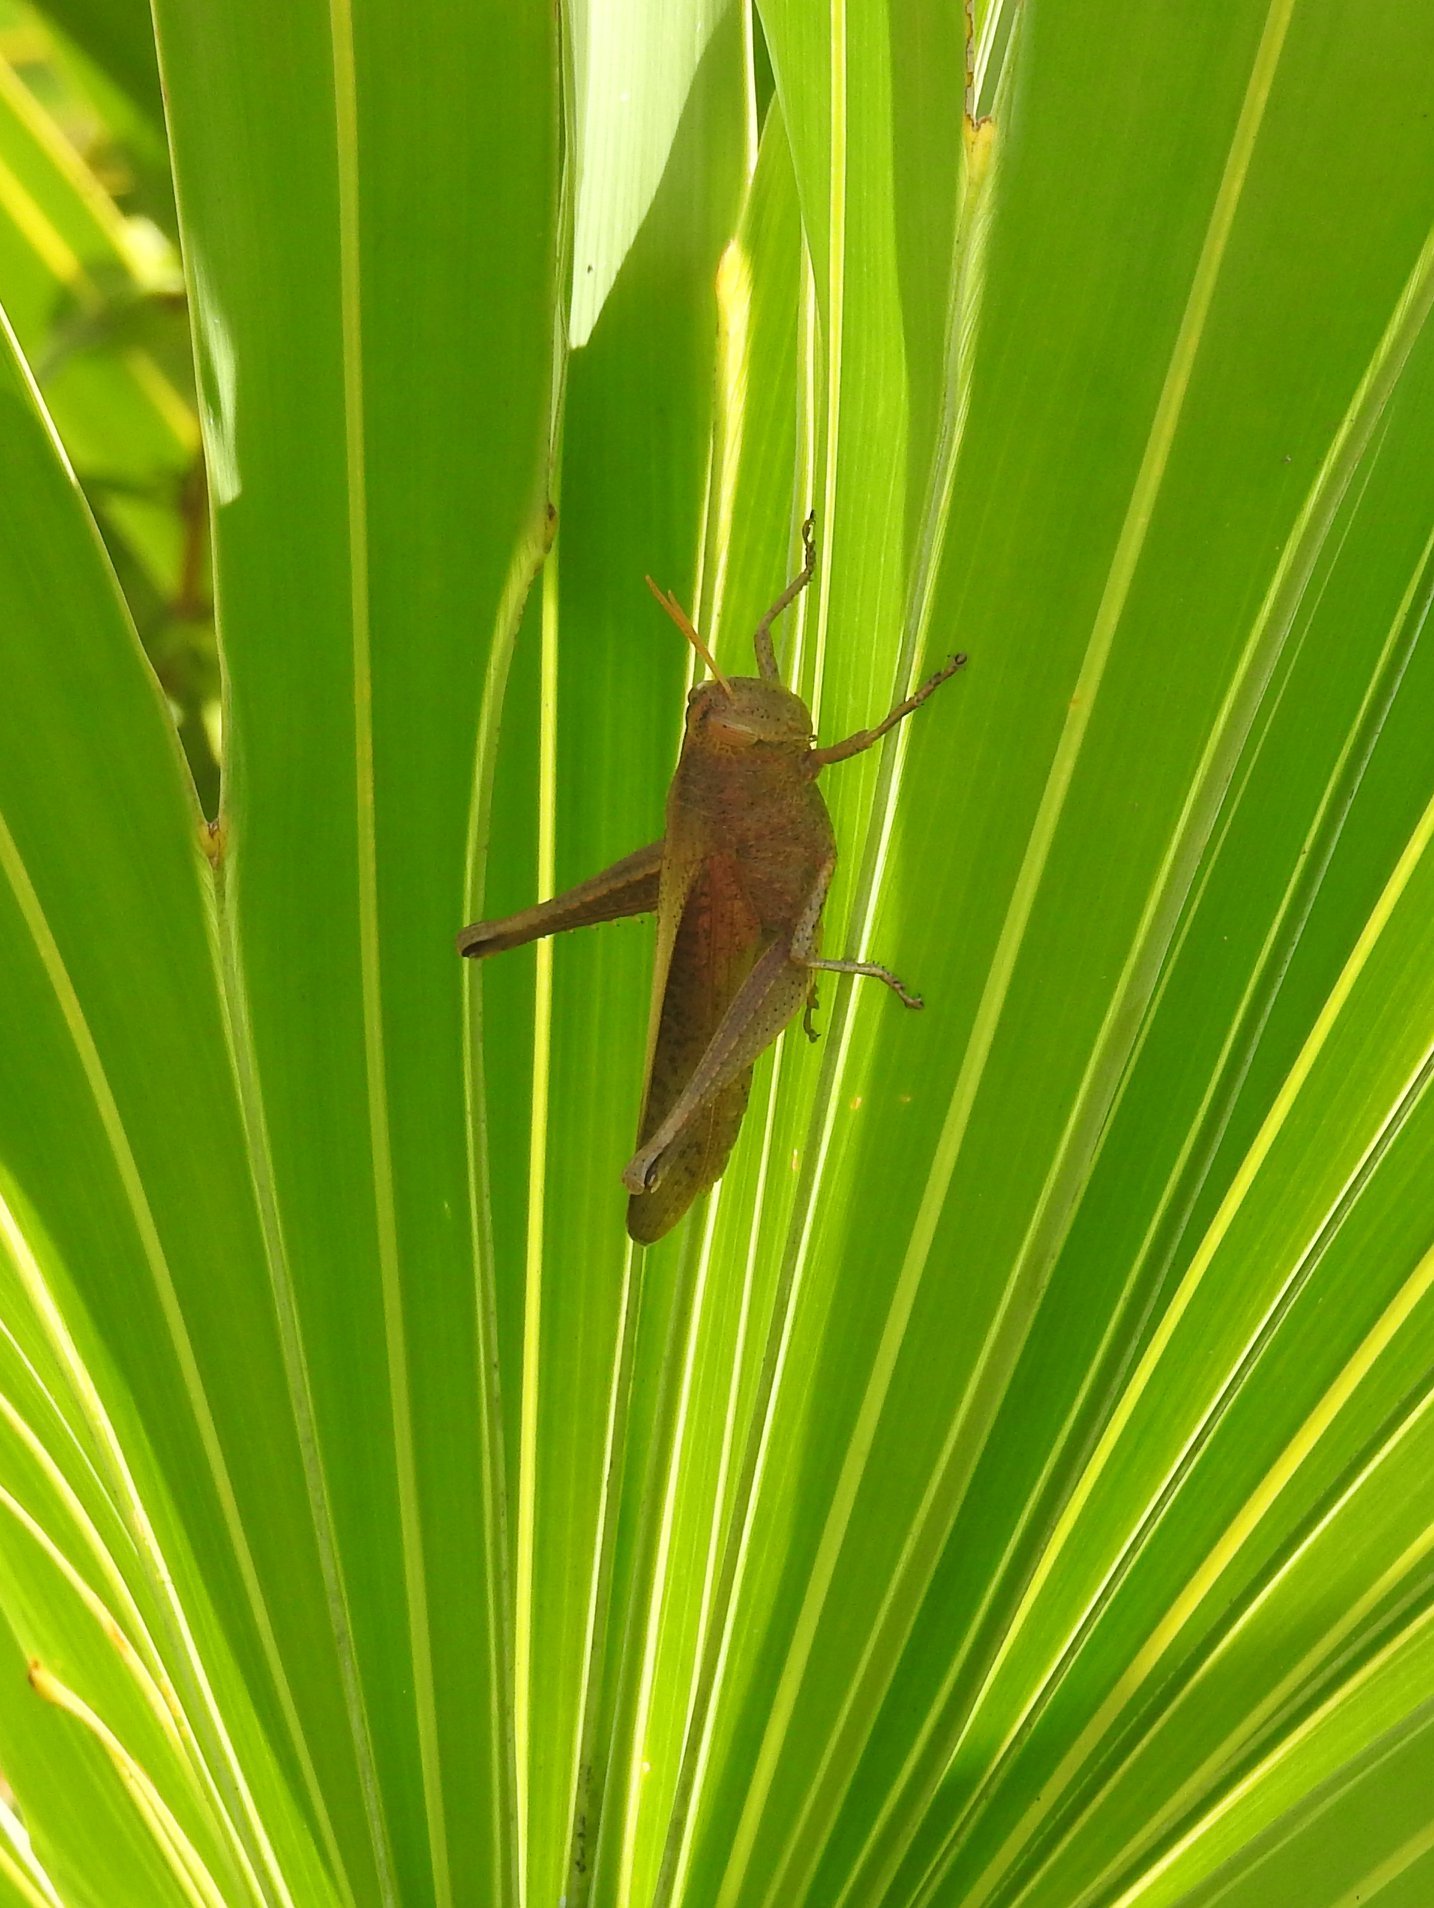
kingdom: Animalia
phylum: Arthropoda
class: Insecta
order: Orthoptera
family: Acrididae
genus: Schistocerca
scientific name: Schistocerca damnifica
